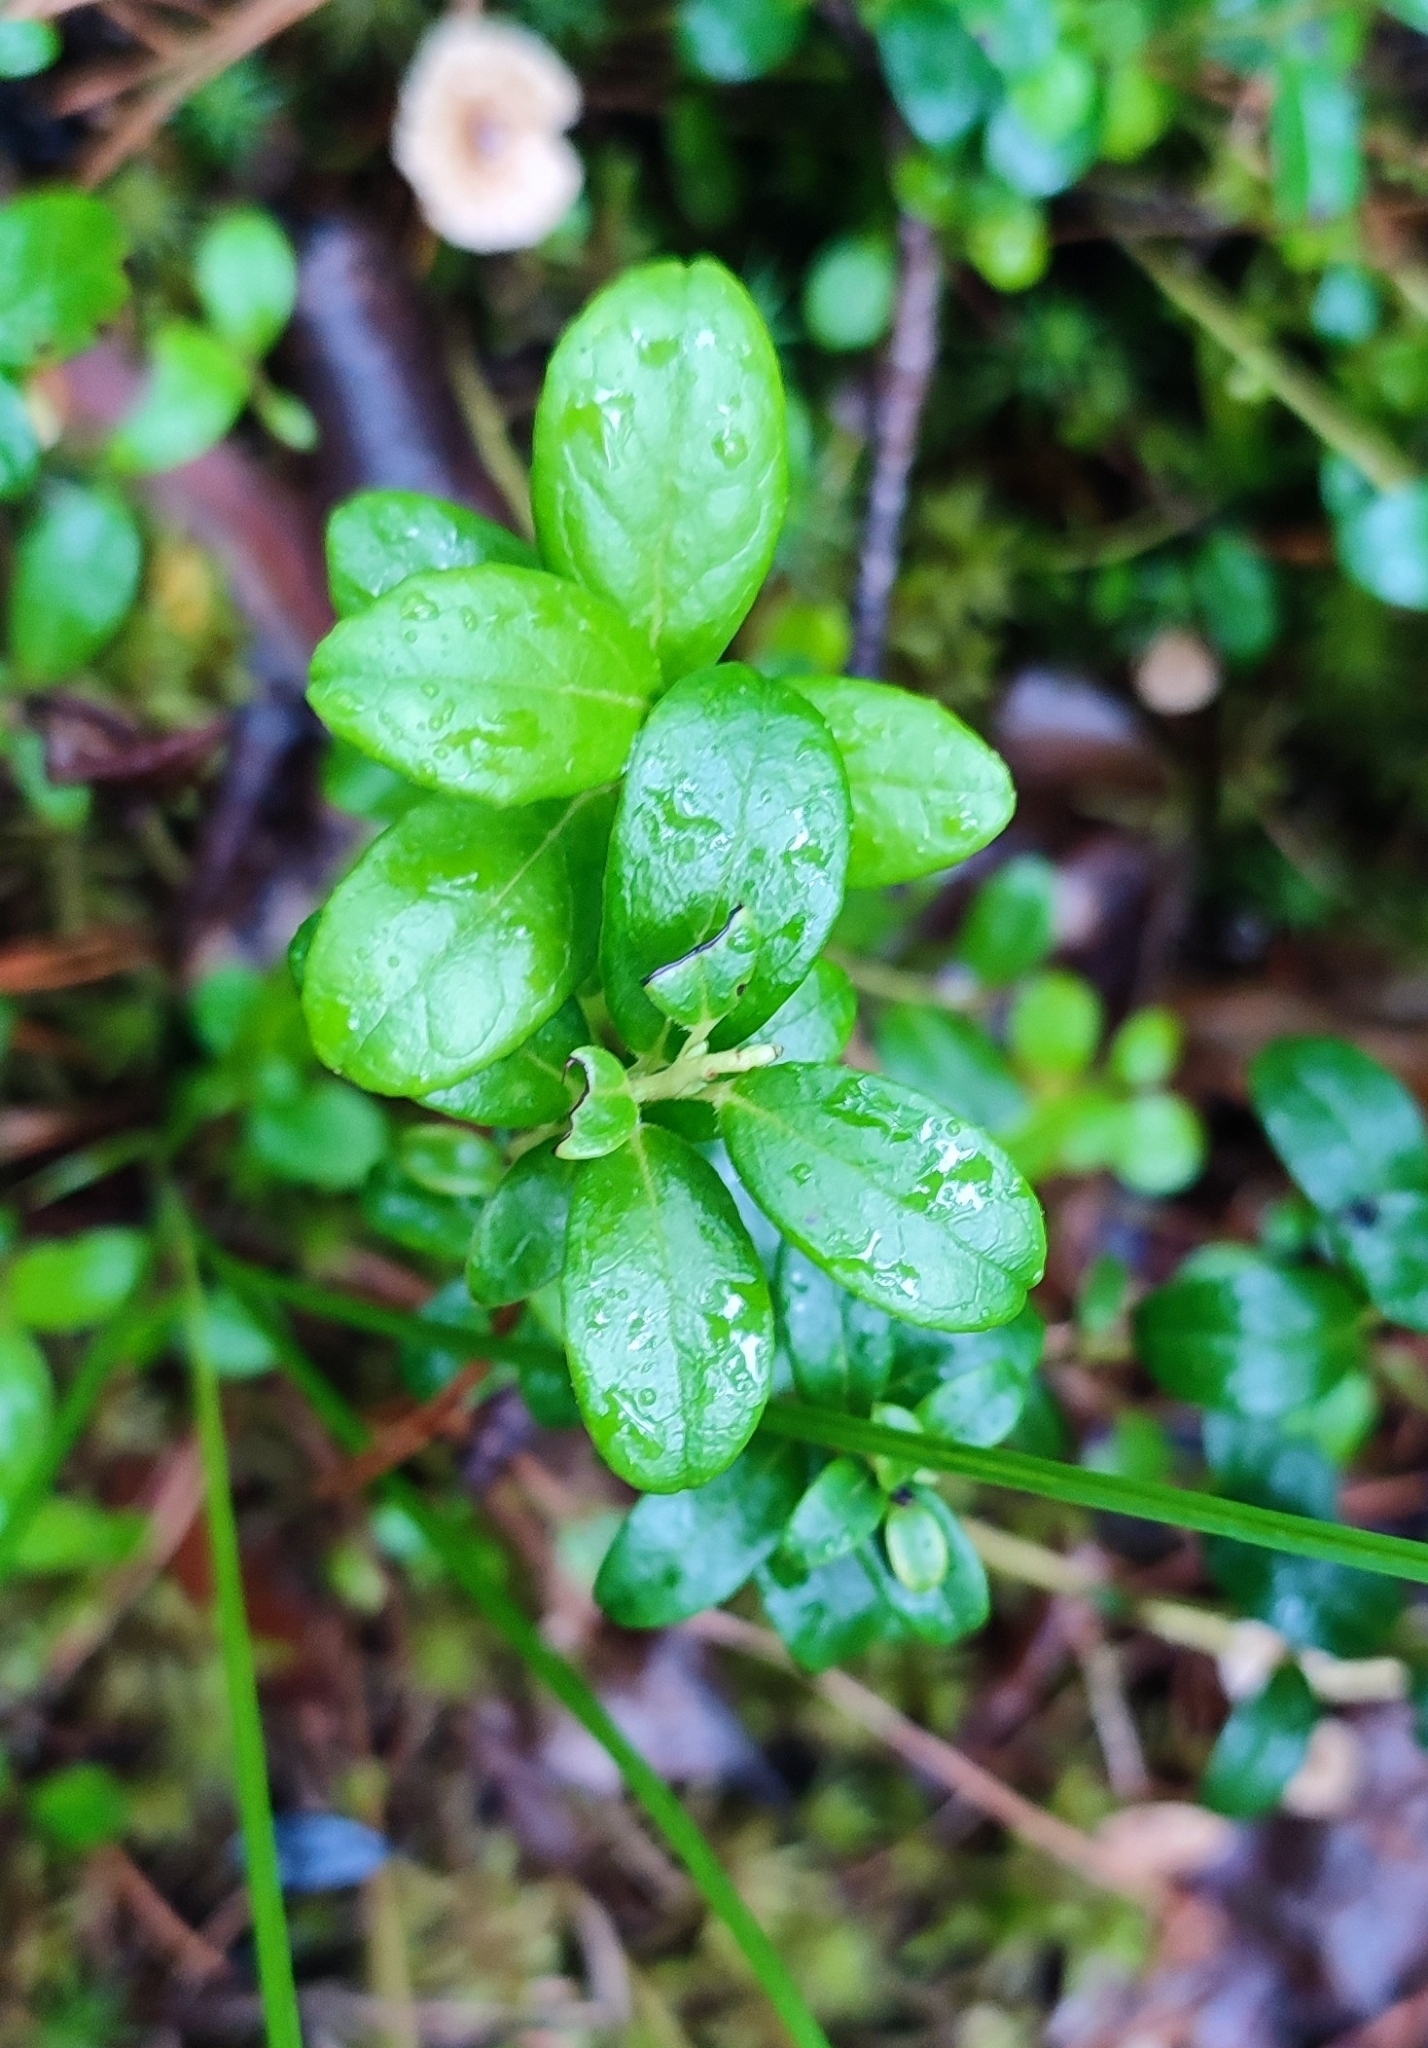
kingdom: Plantae
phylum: Tracheophyta
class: Magnoliopsida
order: Ericales
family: Ericaceae
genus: Vaccinium
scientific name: Vaccinium vitis-idaea
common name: Cowberry
